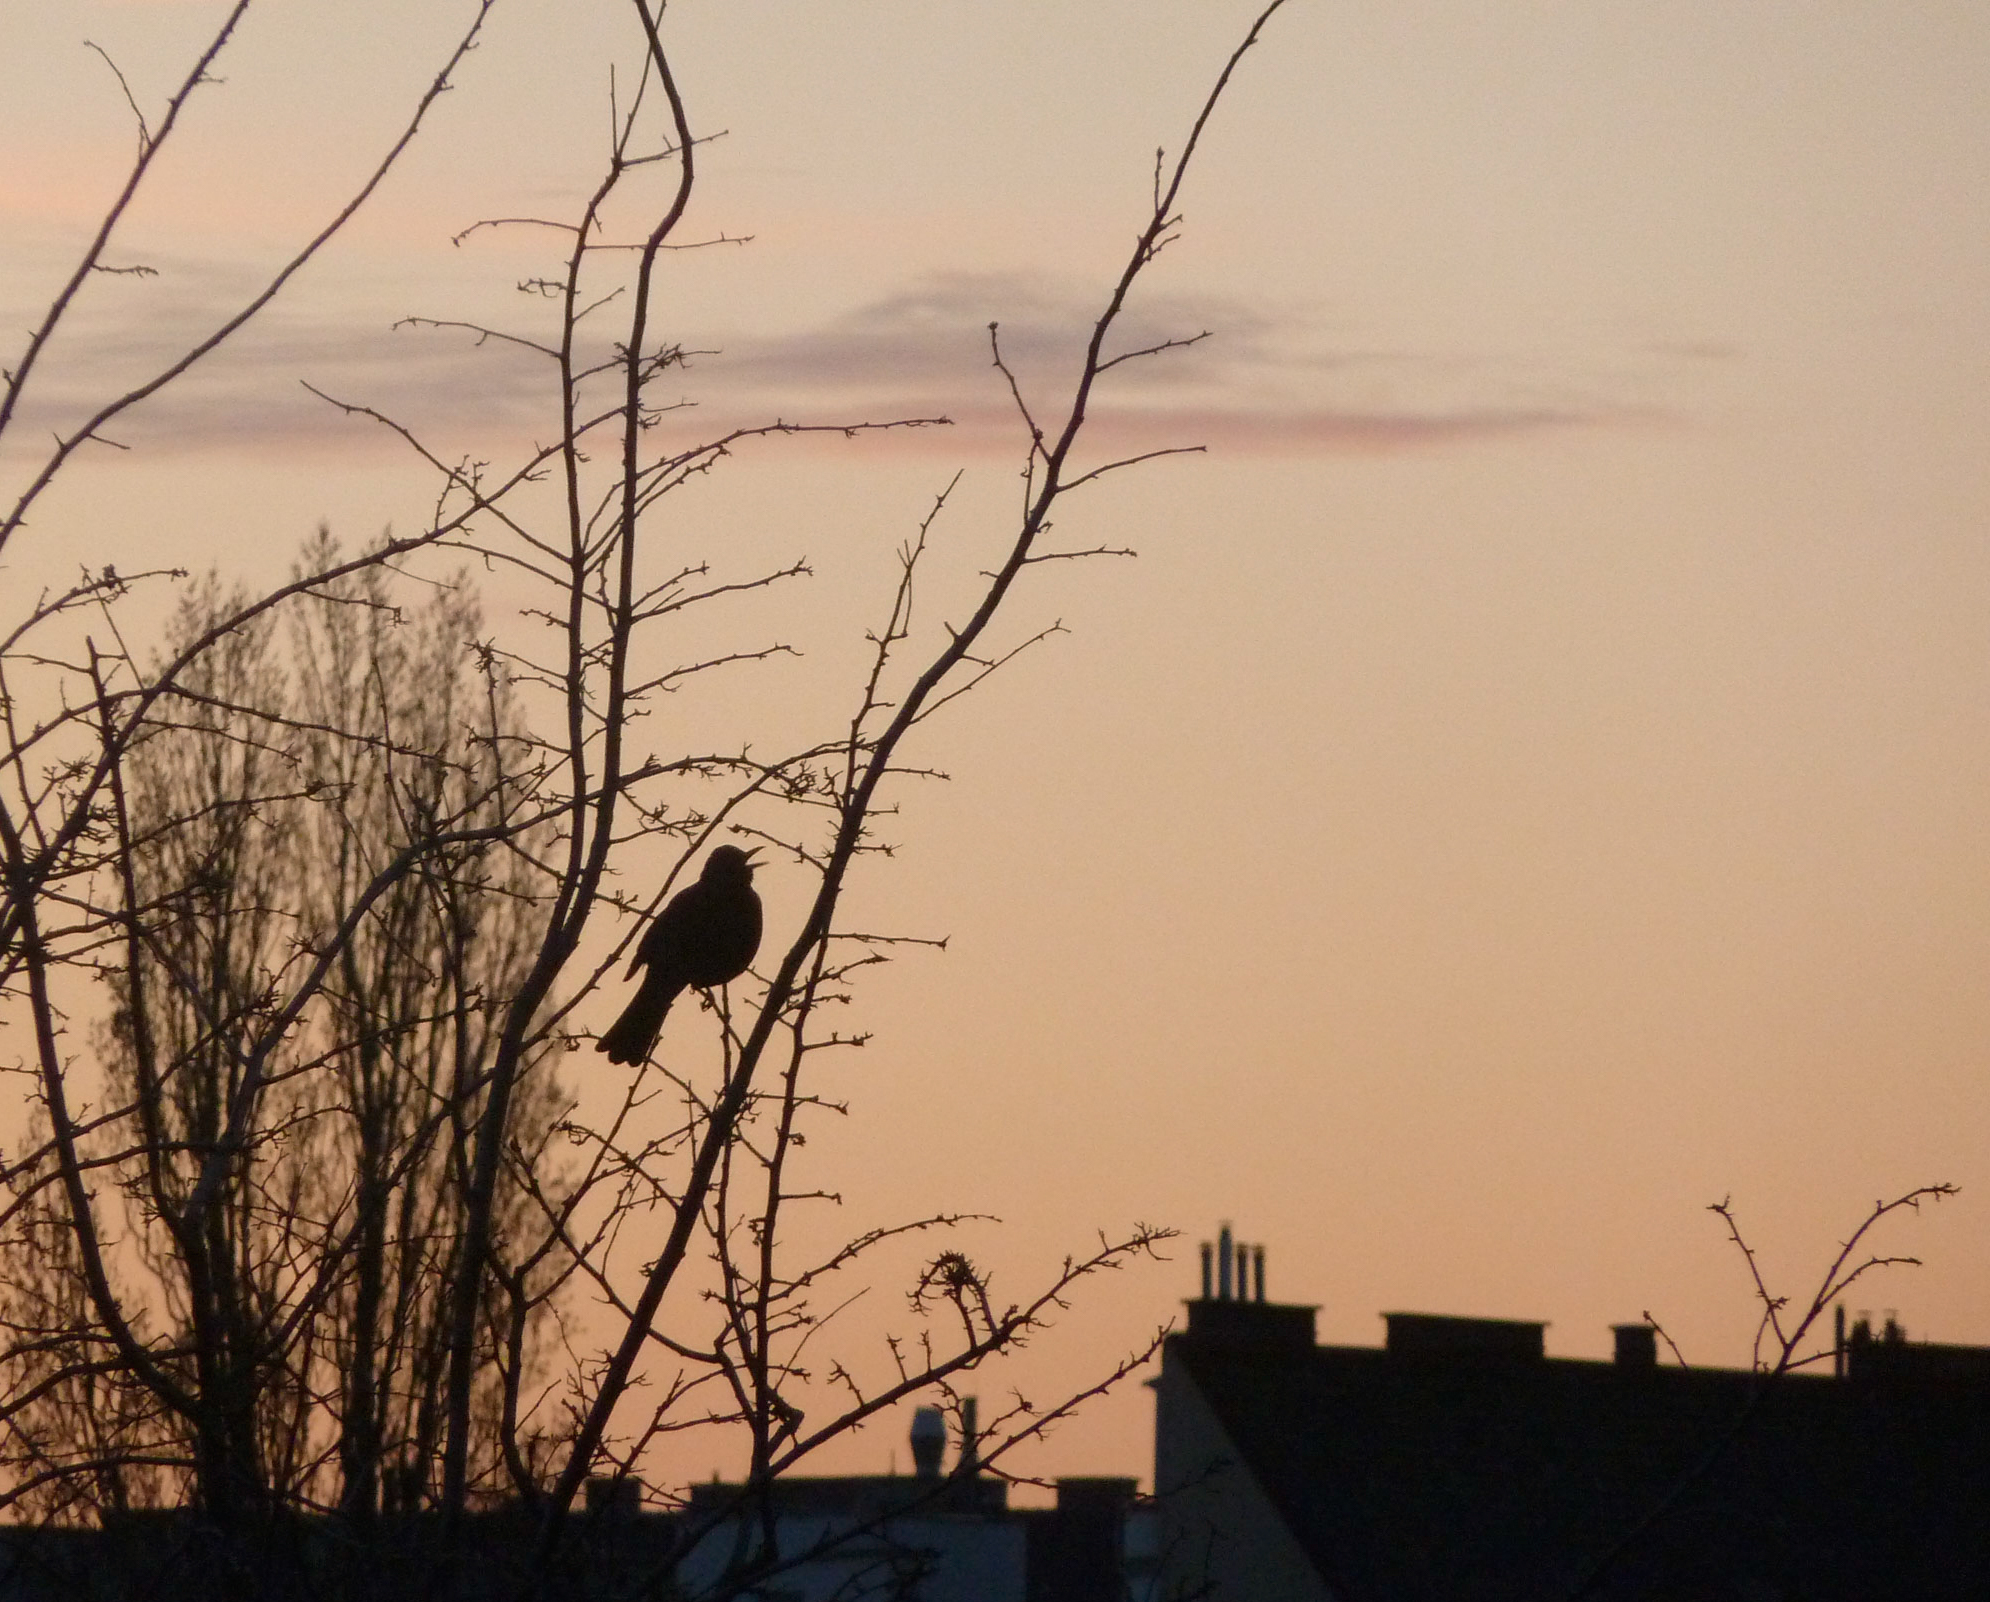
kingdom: Animalia
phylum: Chordata
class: Aves
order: Passeriformes
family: Turdidae
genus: Turdus
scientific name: Turdus merula
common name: Common blackbird
